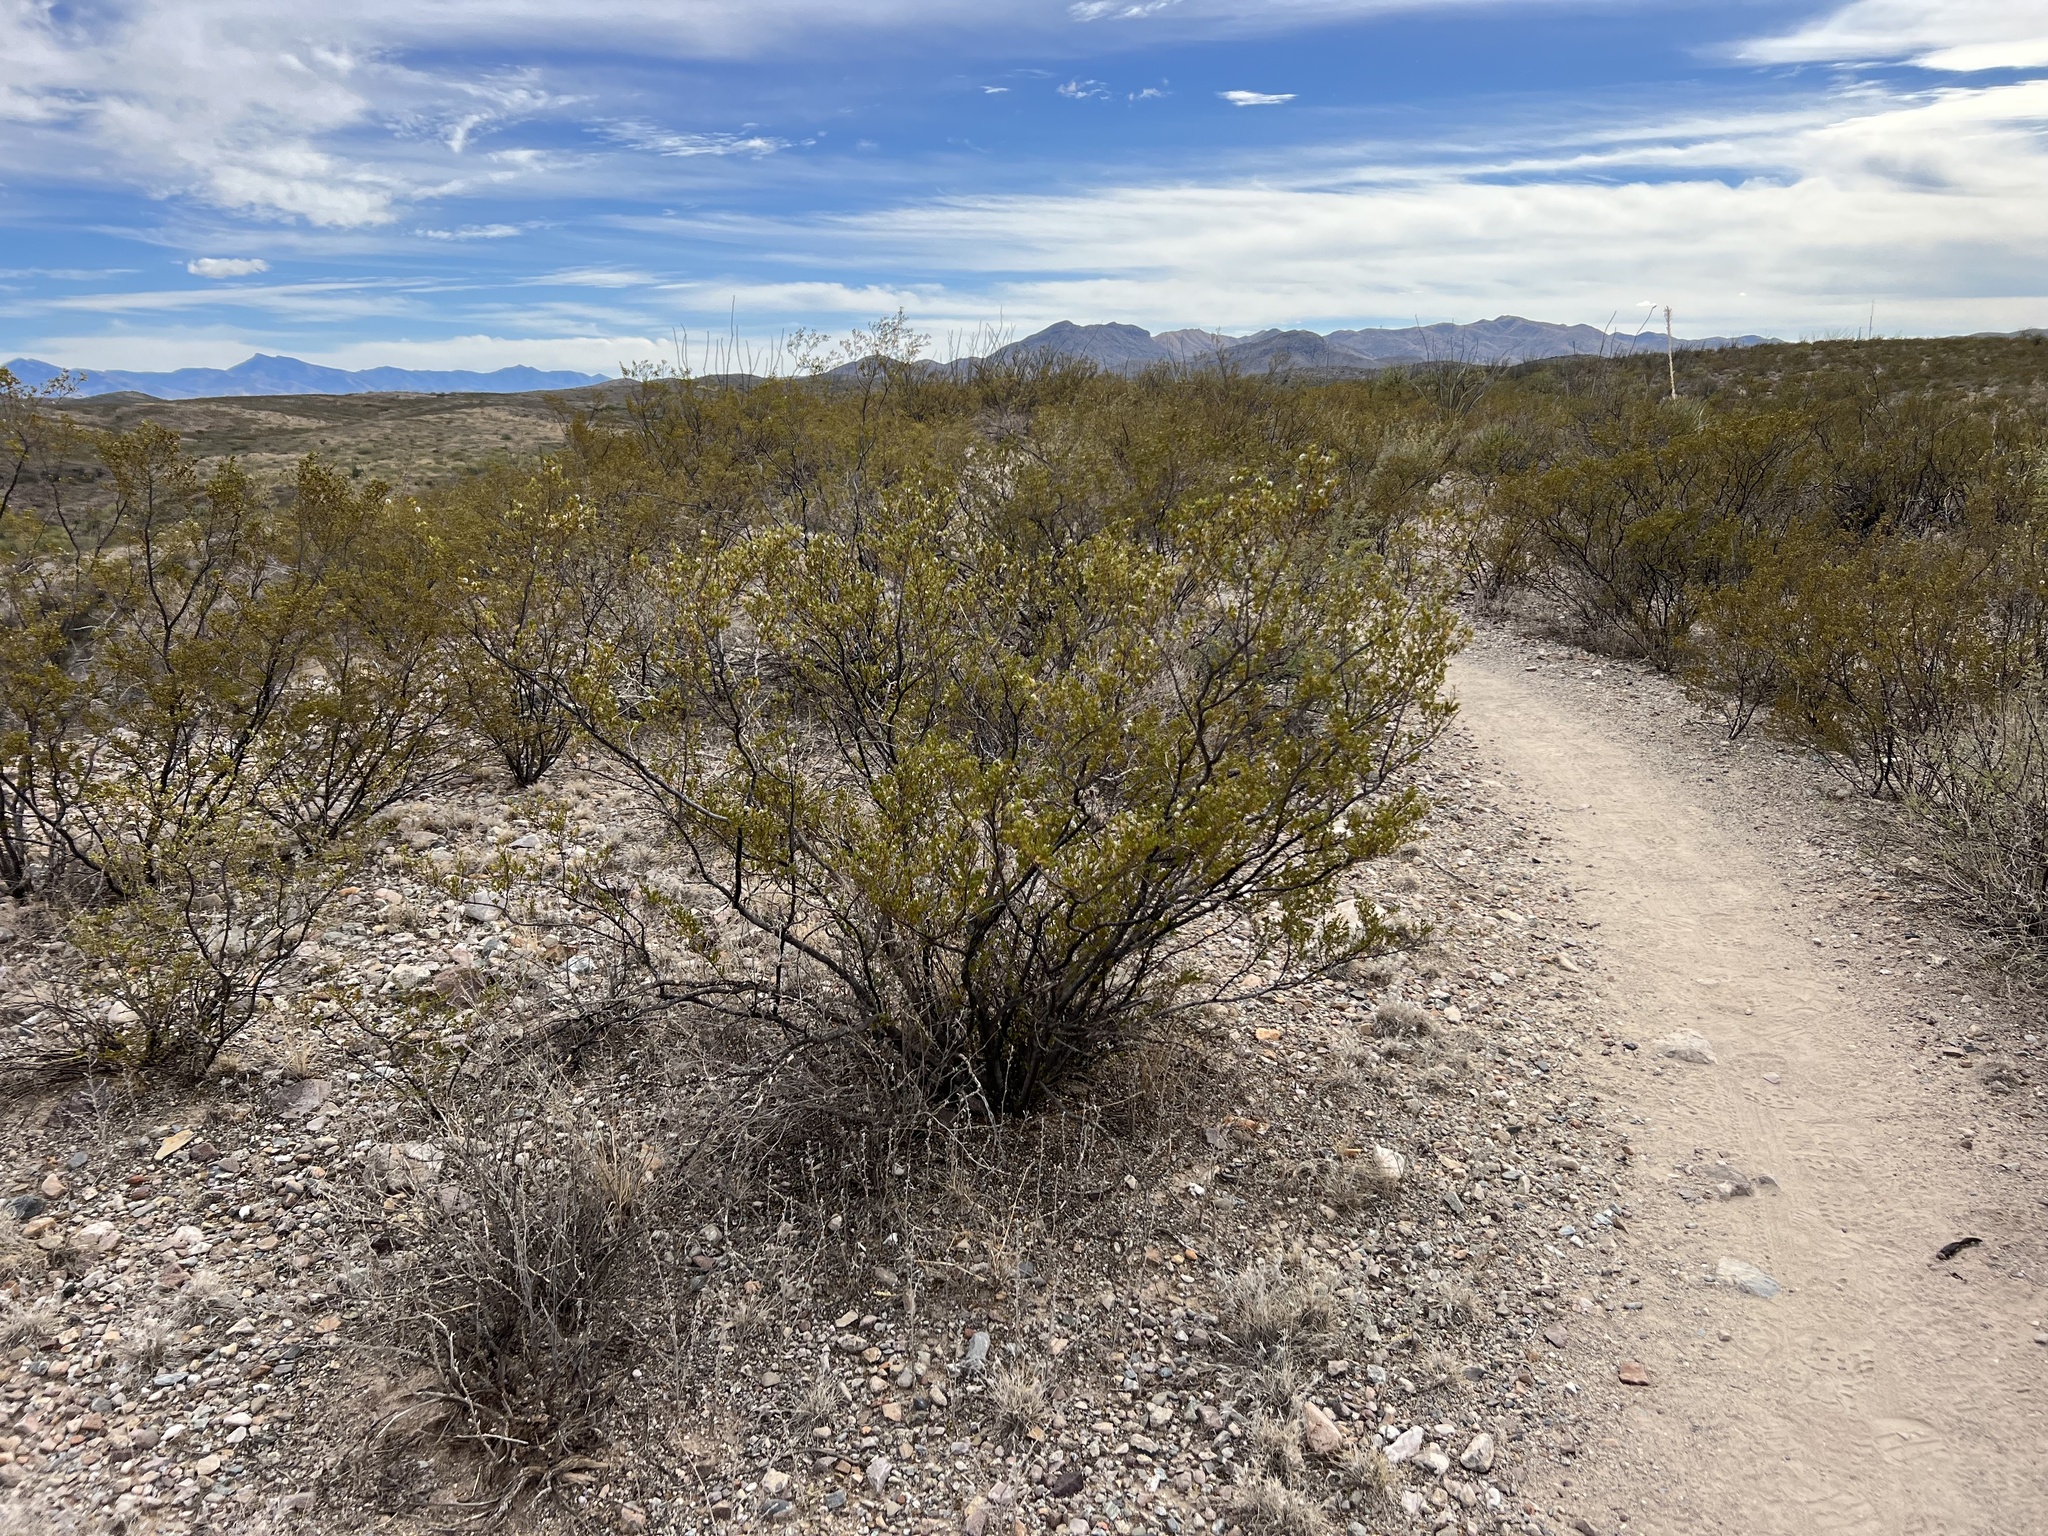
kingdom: Plantae
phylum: Tracheophyta
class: Magnoliopsida
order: Zygophyllales
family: Zygophyllaceae
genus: Larrea
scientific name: Larrea tridentata
